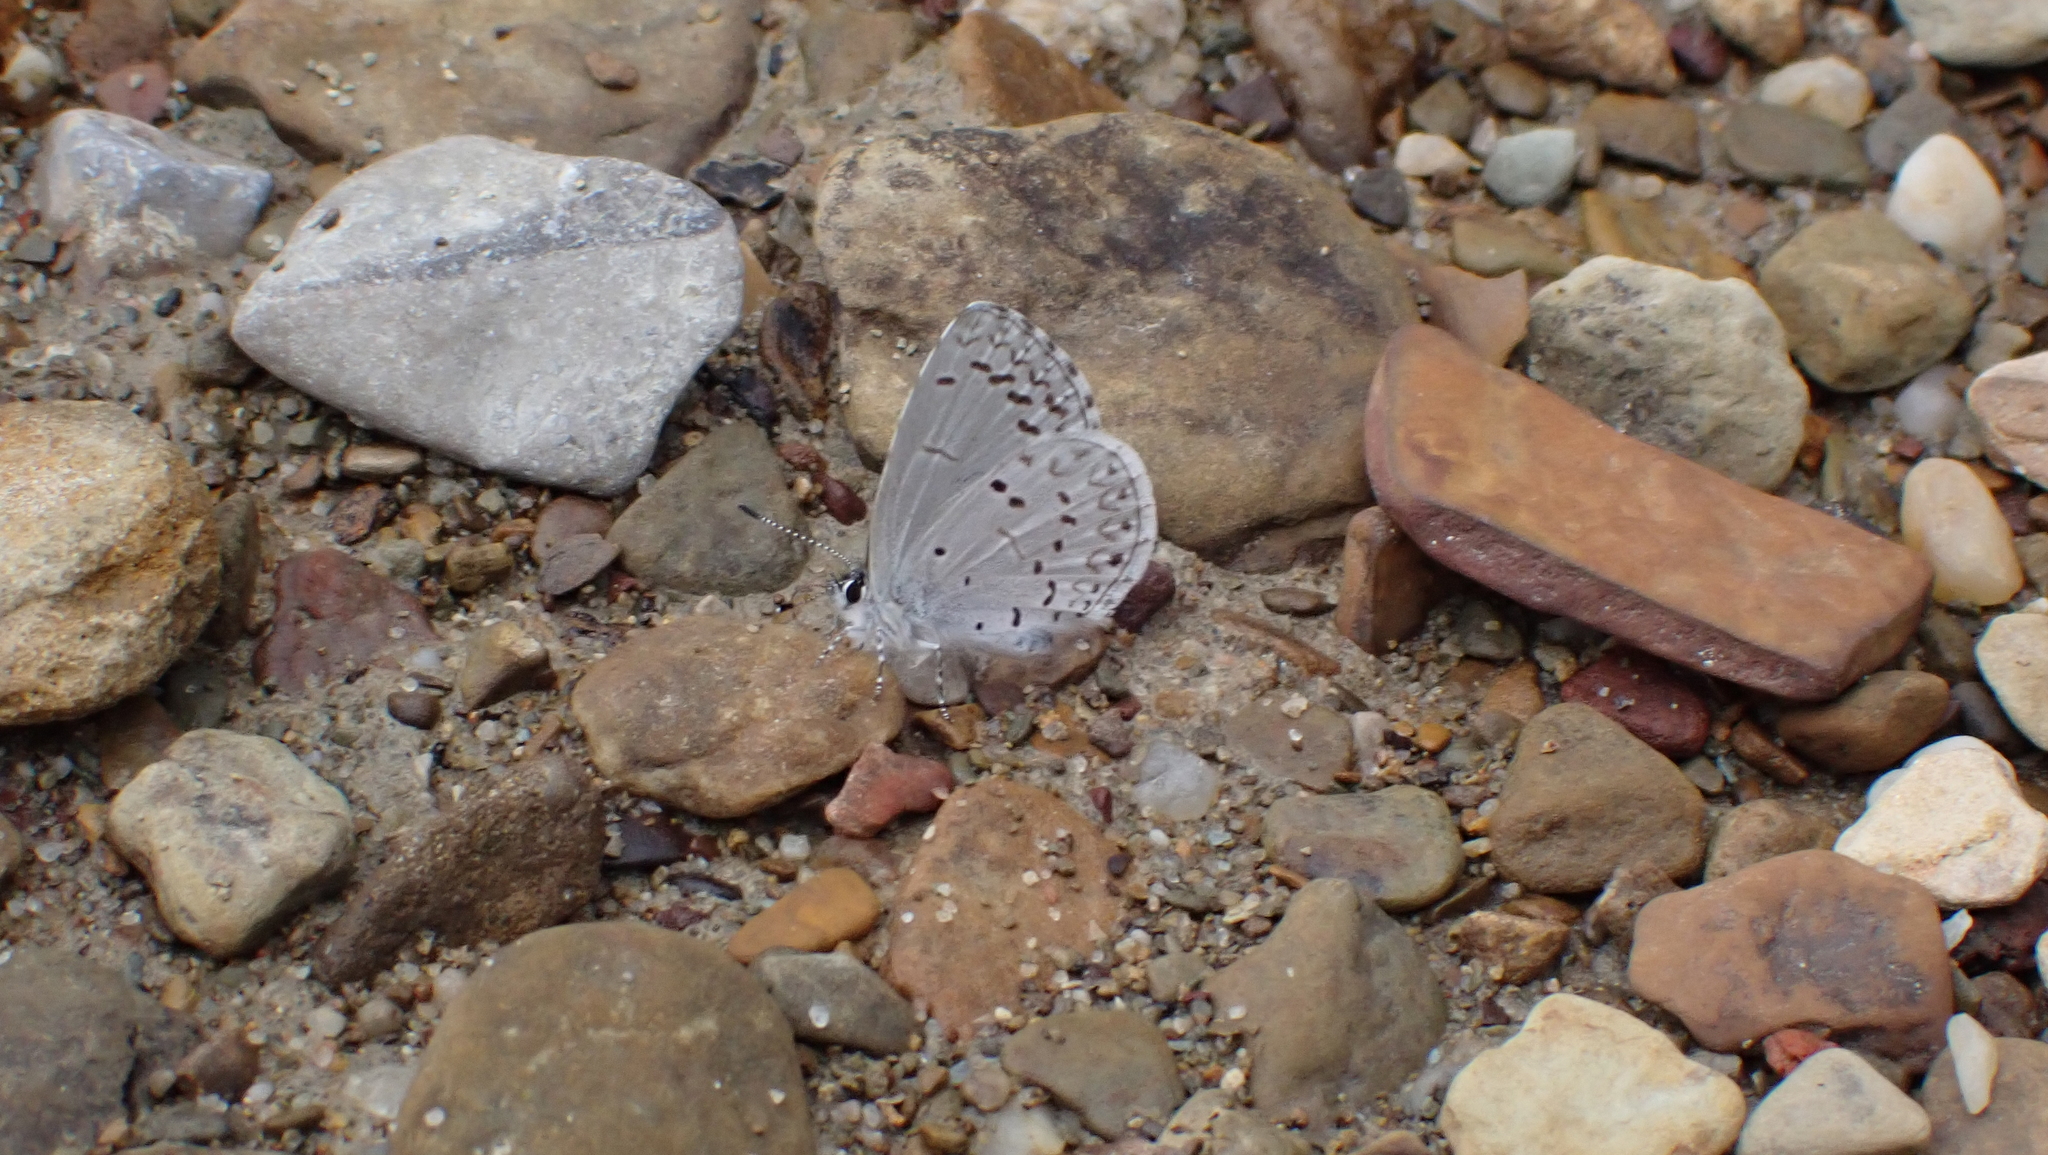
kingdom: Animalia
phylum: Arthropoda
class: Insecta
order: Lepidoptera
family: Lycaenidae
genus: Celastrina
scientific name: Celastrina ladon
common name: Spring azure
